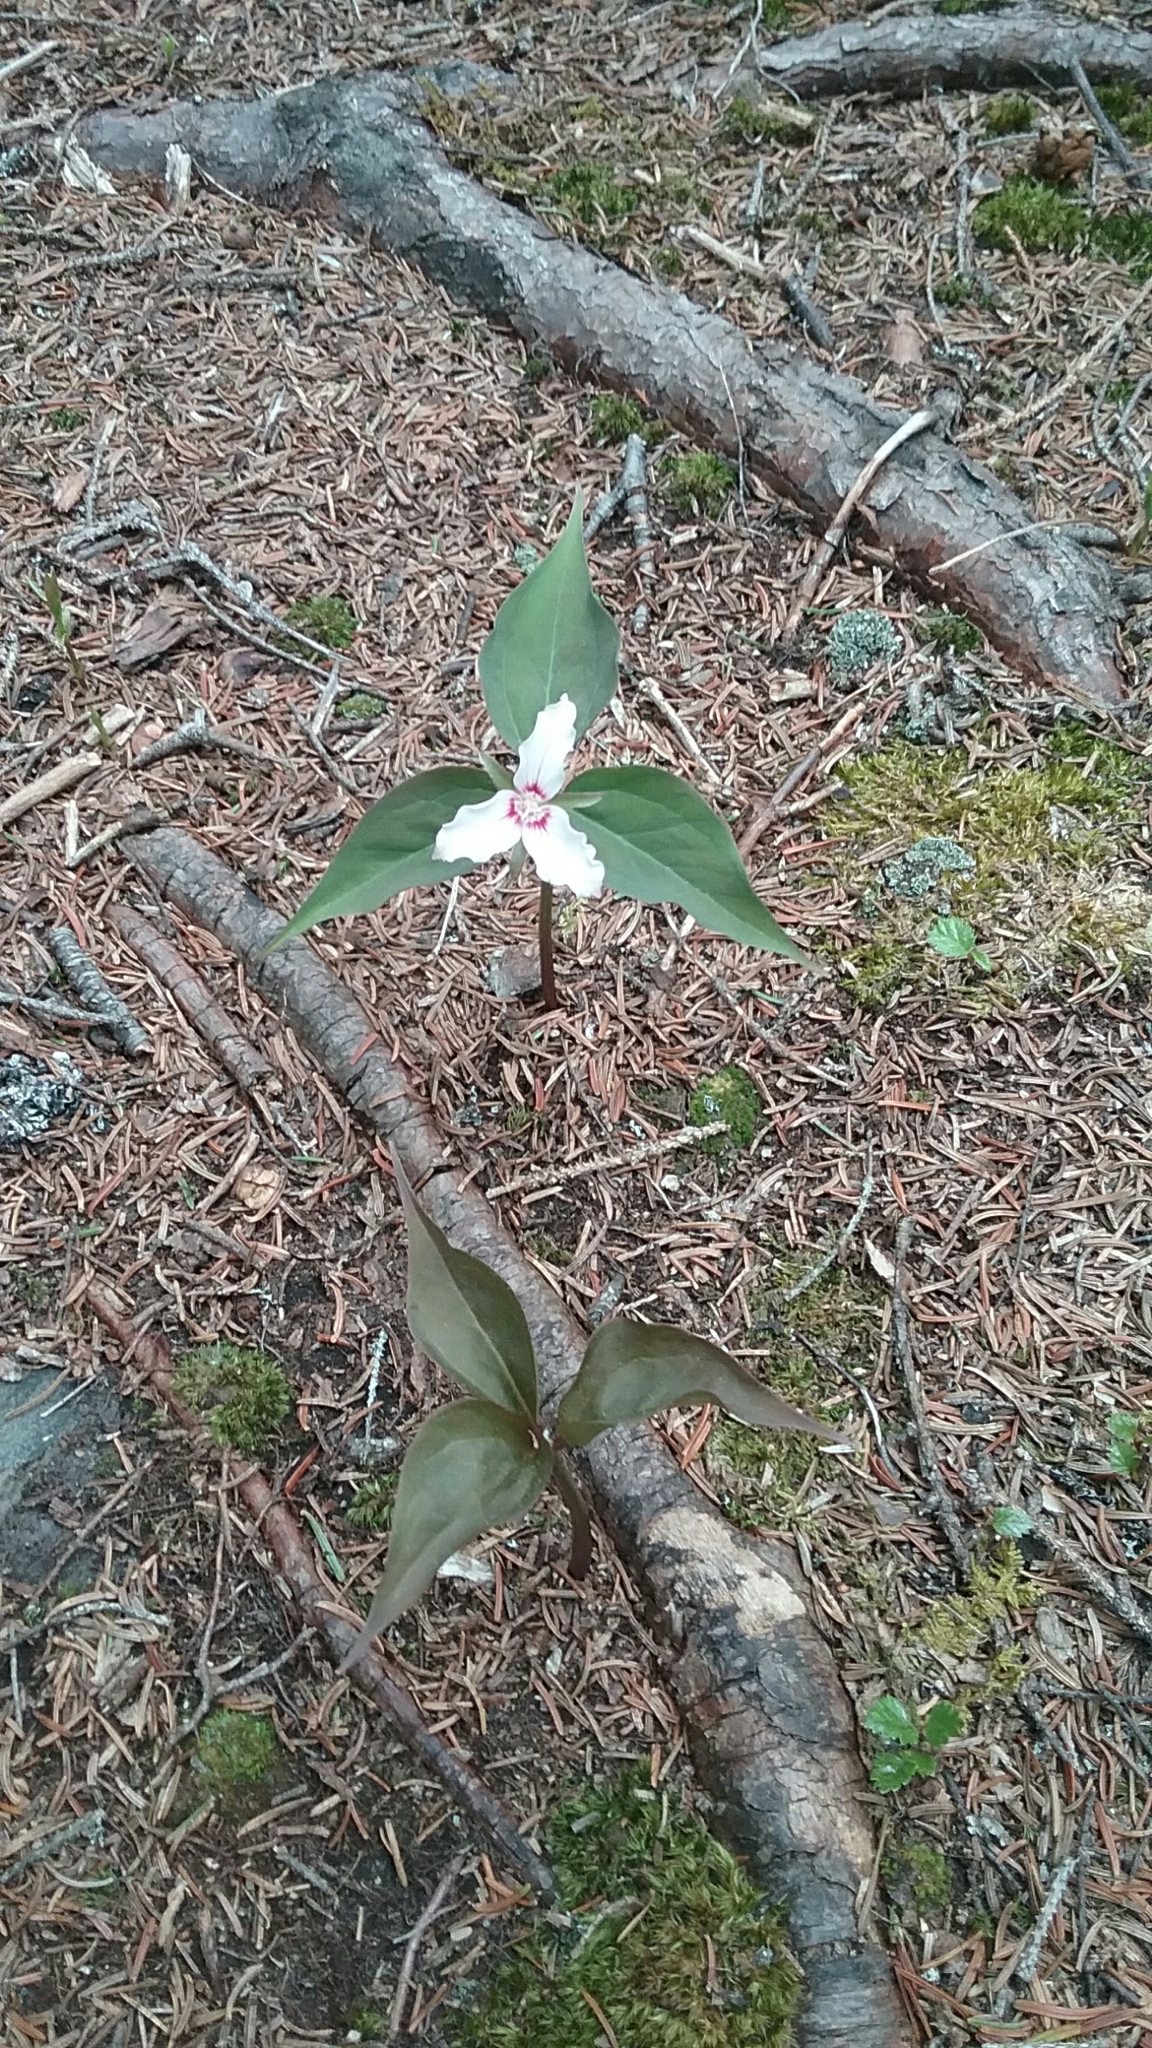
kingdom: Plantae
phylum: Tracheophyta
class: Liliopsida
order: Liliales
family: Melanthiaceae
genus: Trillium
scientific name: Trillium undulatum
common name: Paint trillium
